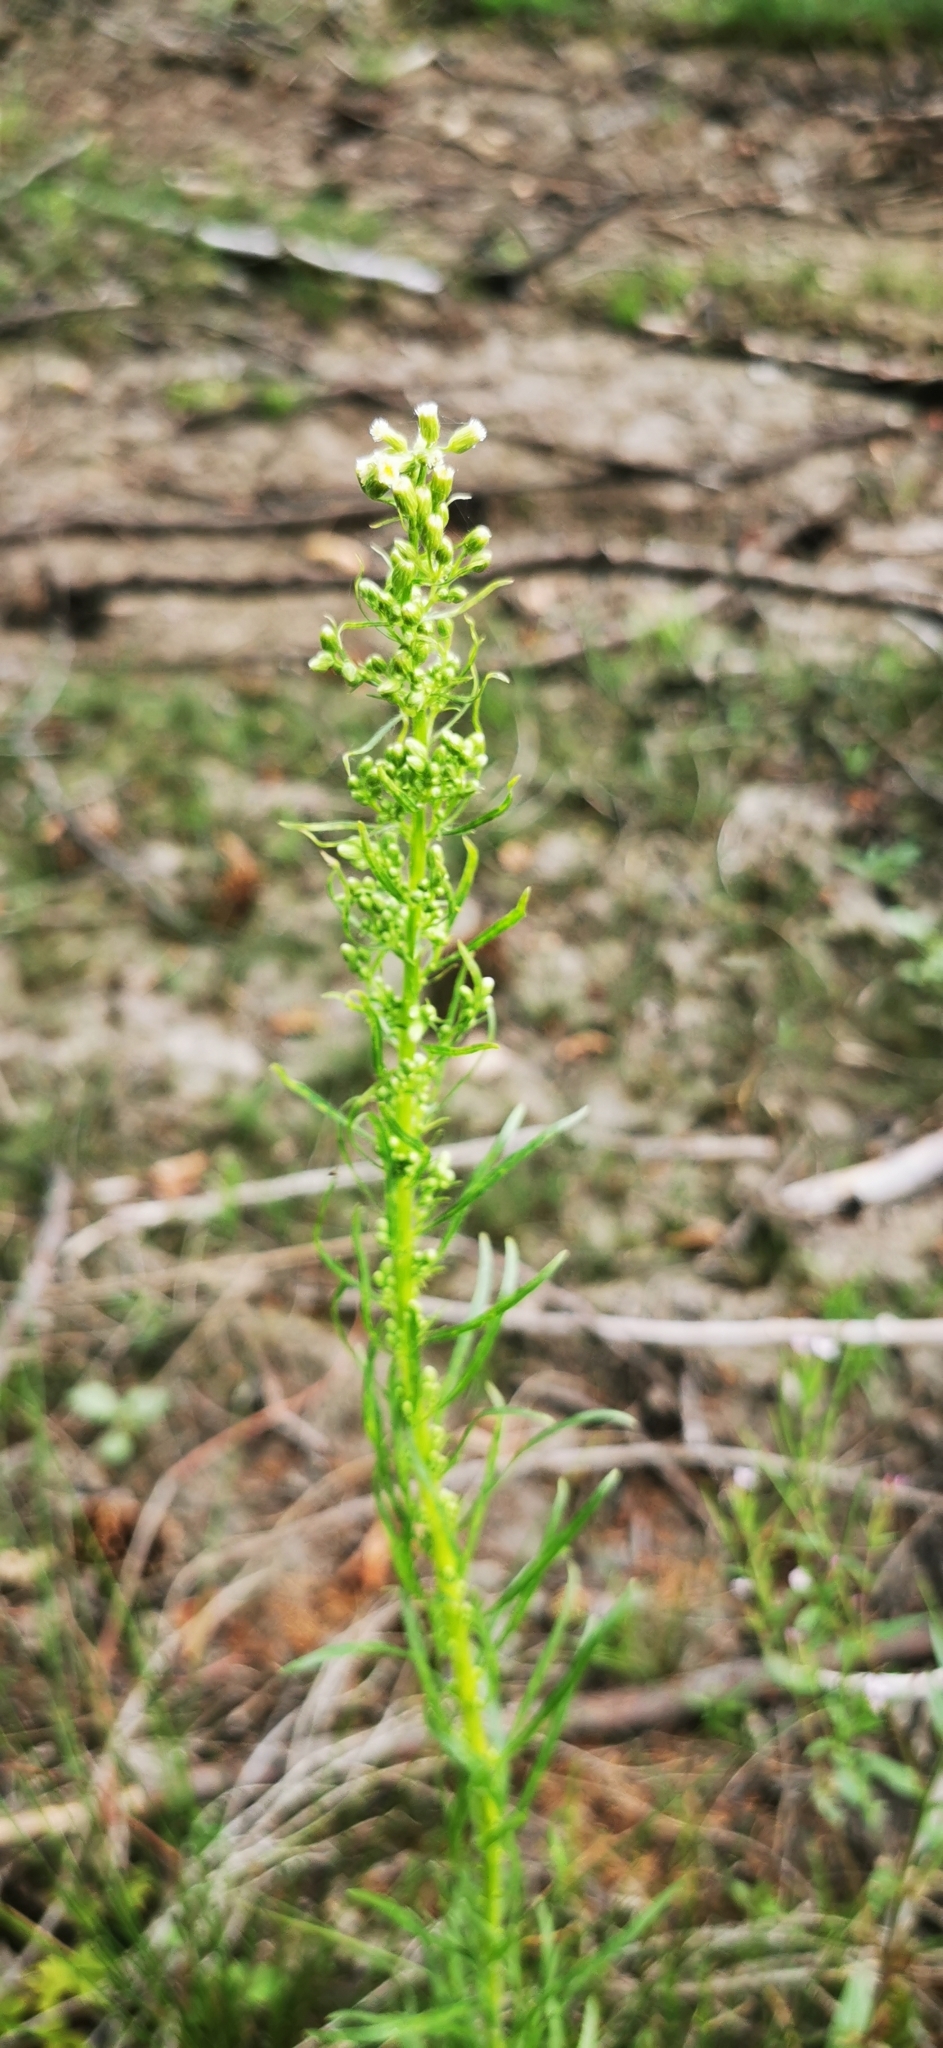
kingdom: Plantae
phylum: Tracheophyta
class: Magnoliopsida
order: Asterales
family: Asteraceae
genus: Erigeron
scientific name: Erigeron canadensis
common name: Canadian fleabane
